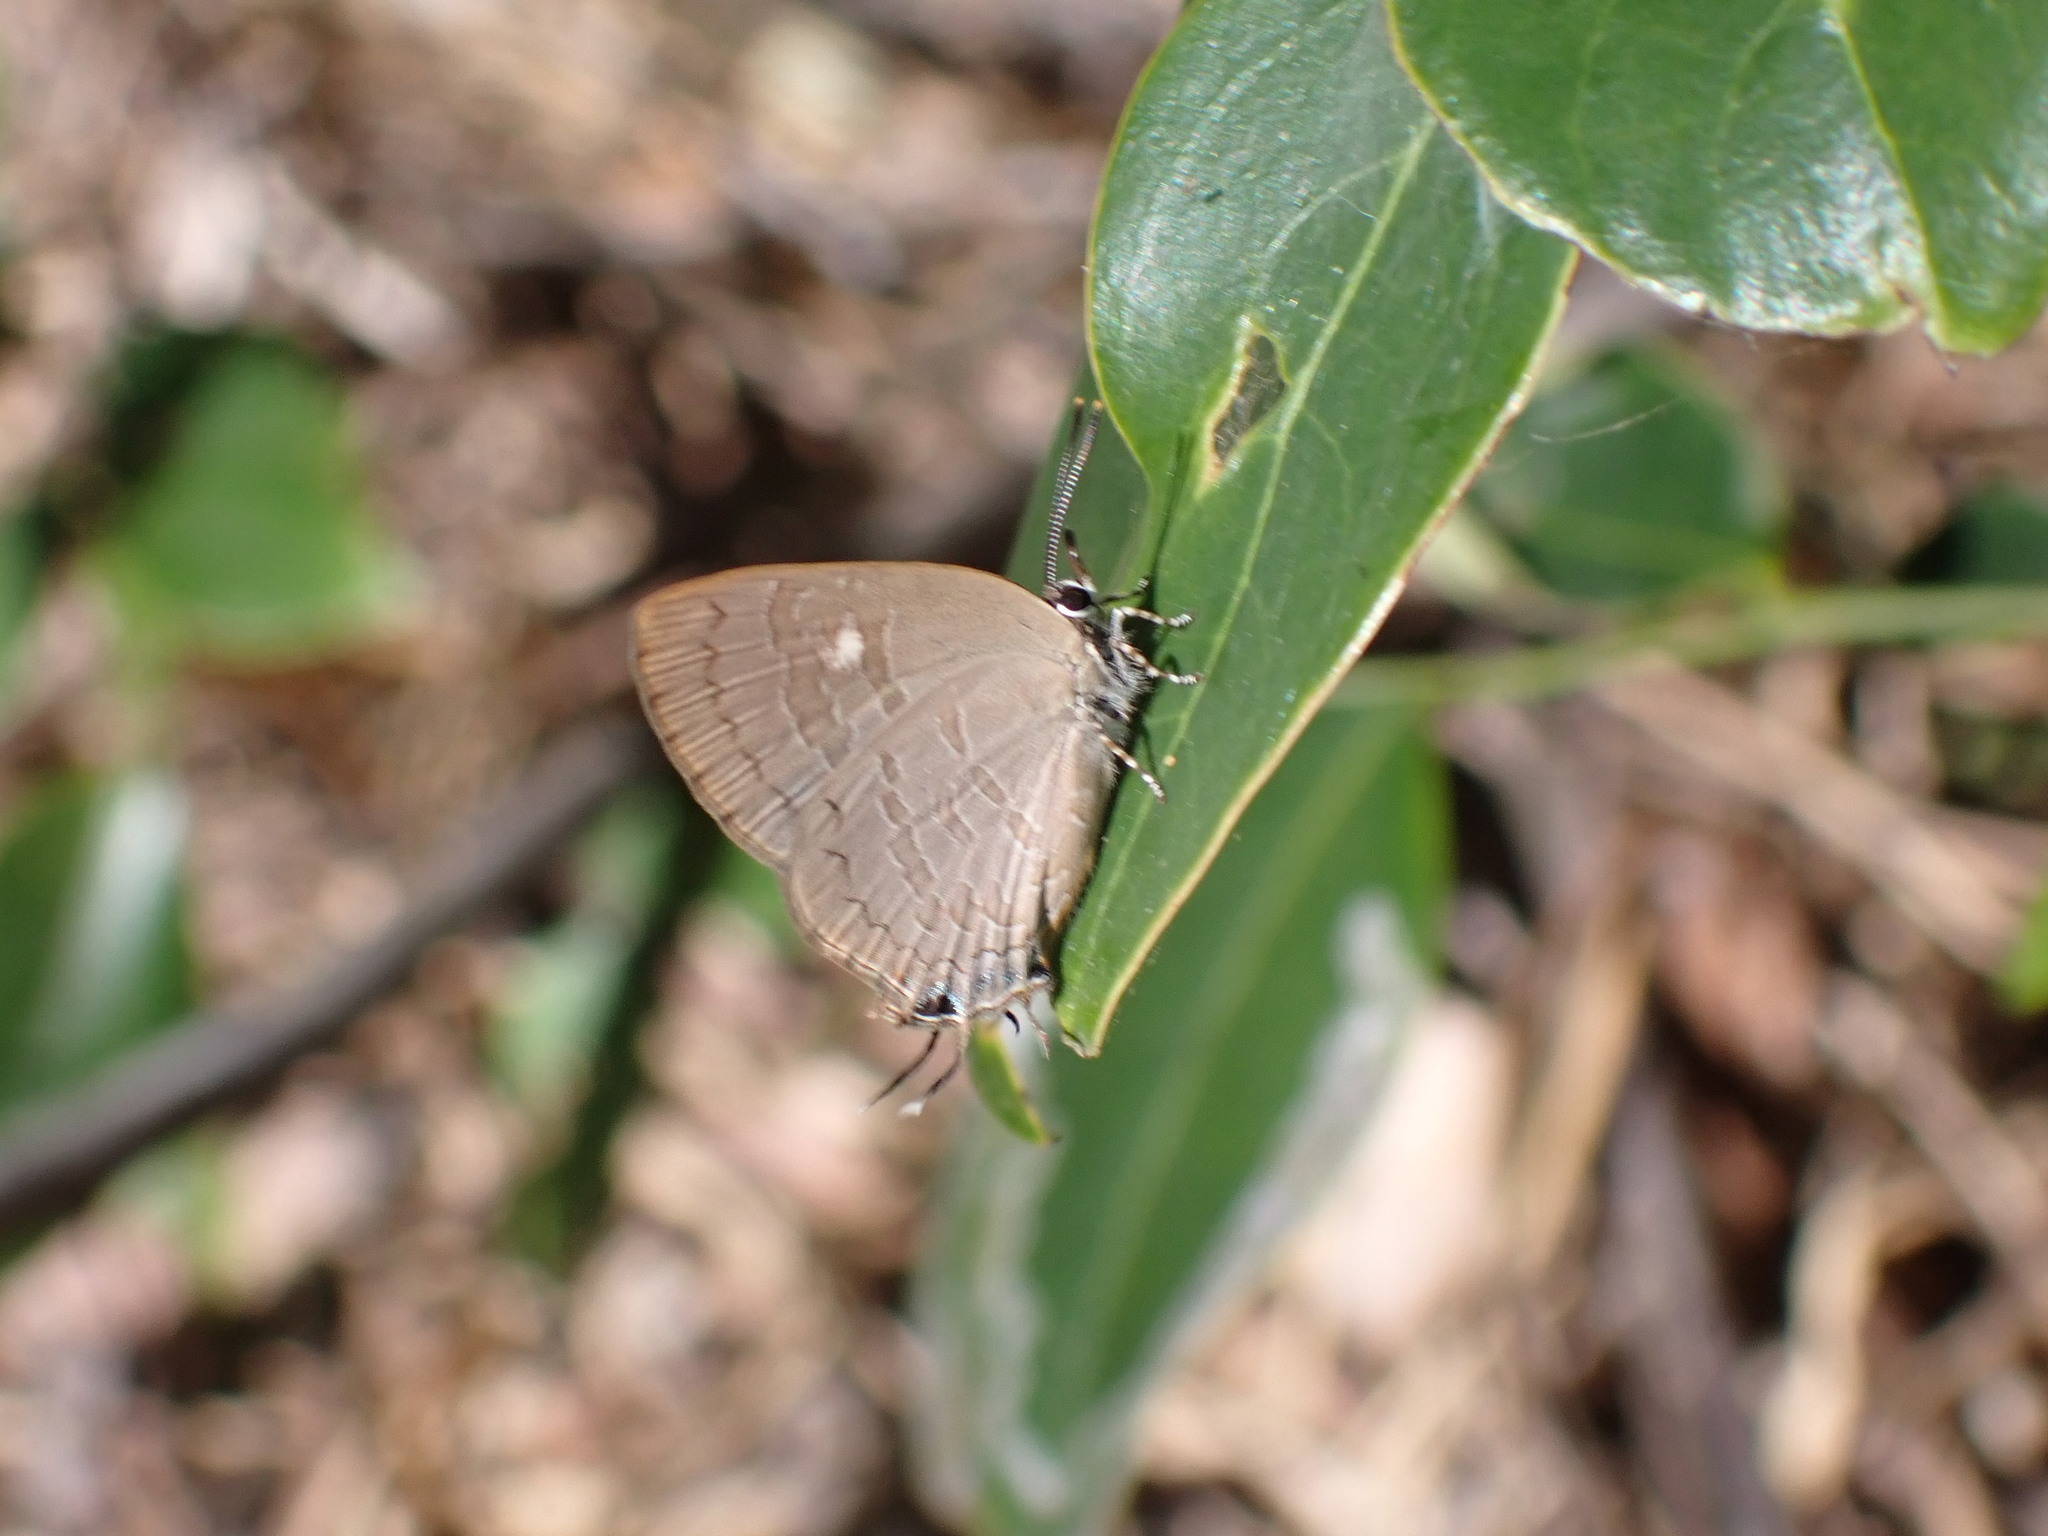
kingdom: Animalia
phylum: Arthropoda
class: Insecta
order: Lepidoptera
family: Lycaenidae
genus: Ahmetia
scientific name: Ahmetia
